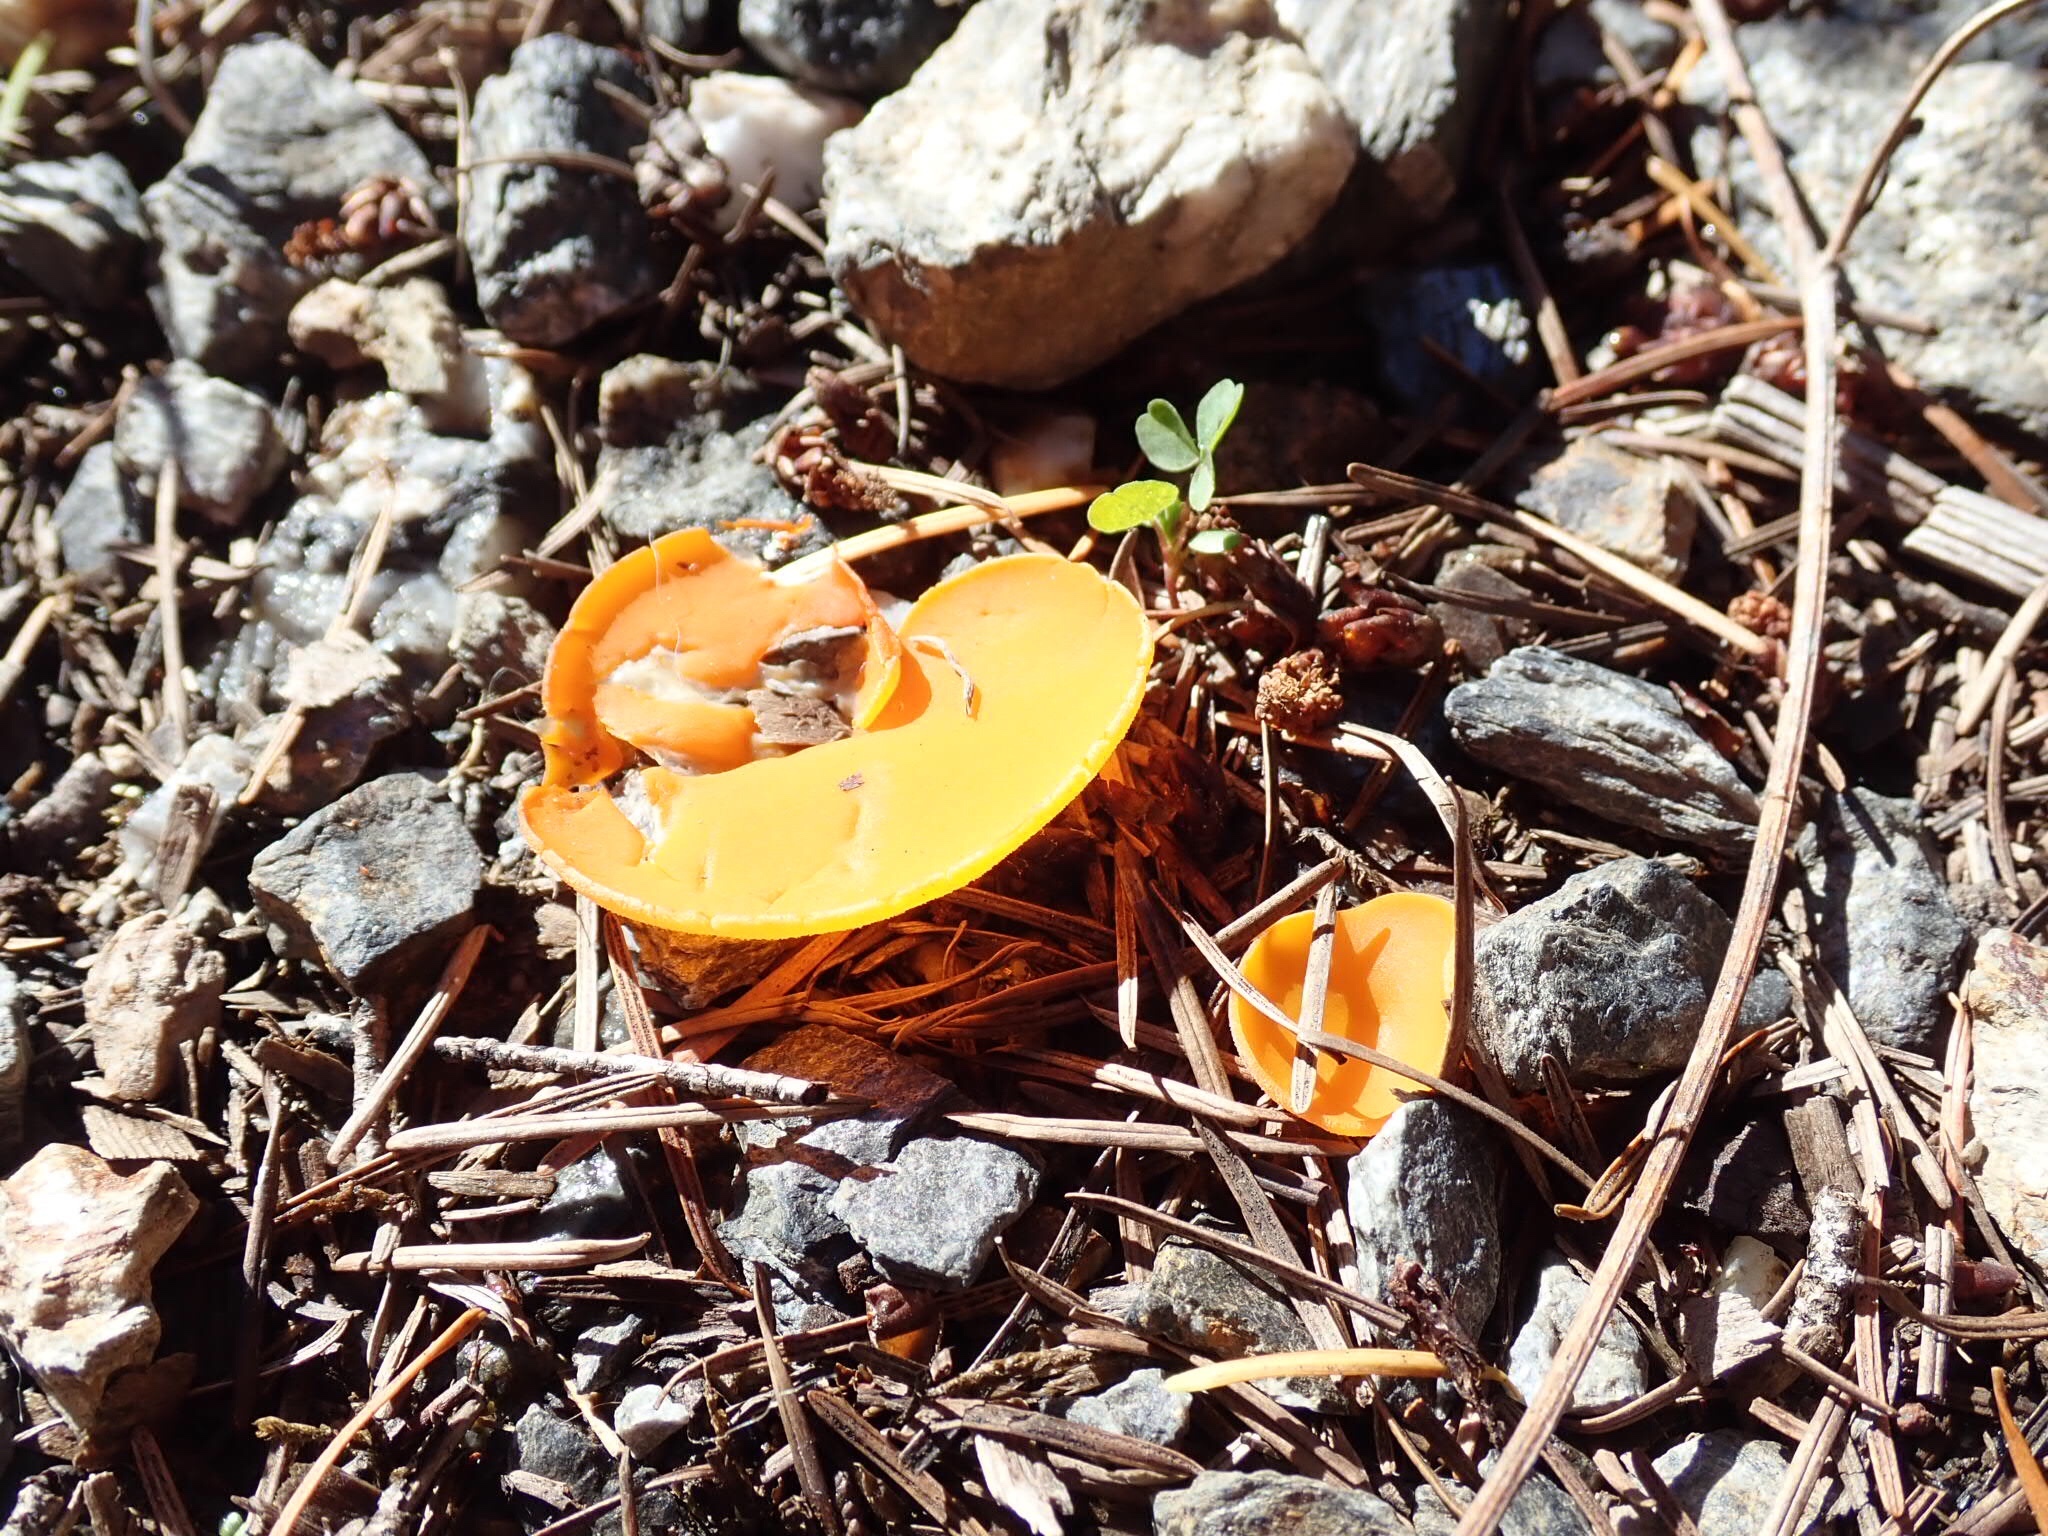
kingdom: Fungi
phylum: Ascomycota
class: Pezizomycetes
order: Pezizales
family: Pyronemataceae
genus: Aleuria
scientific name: Aleuria aurantia
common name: Orange peel fungus
